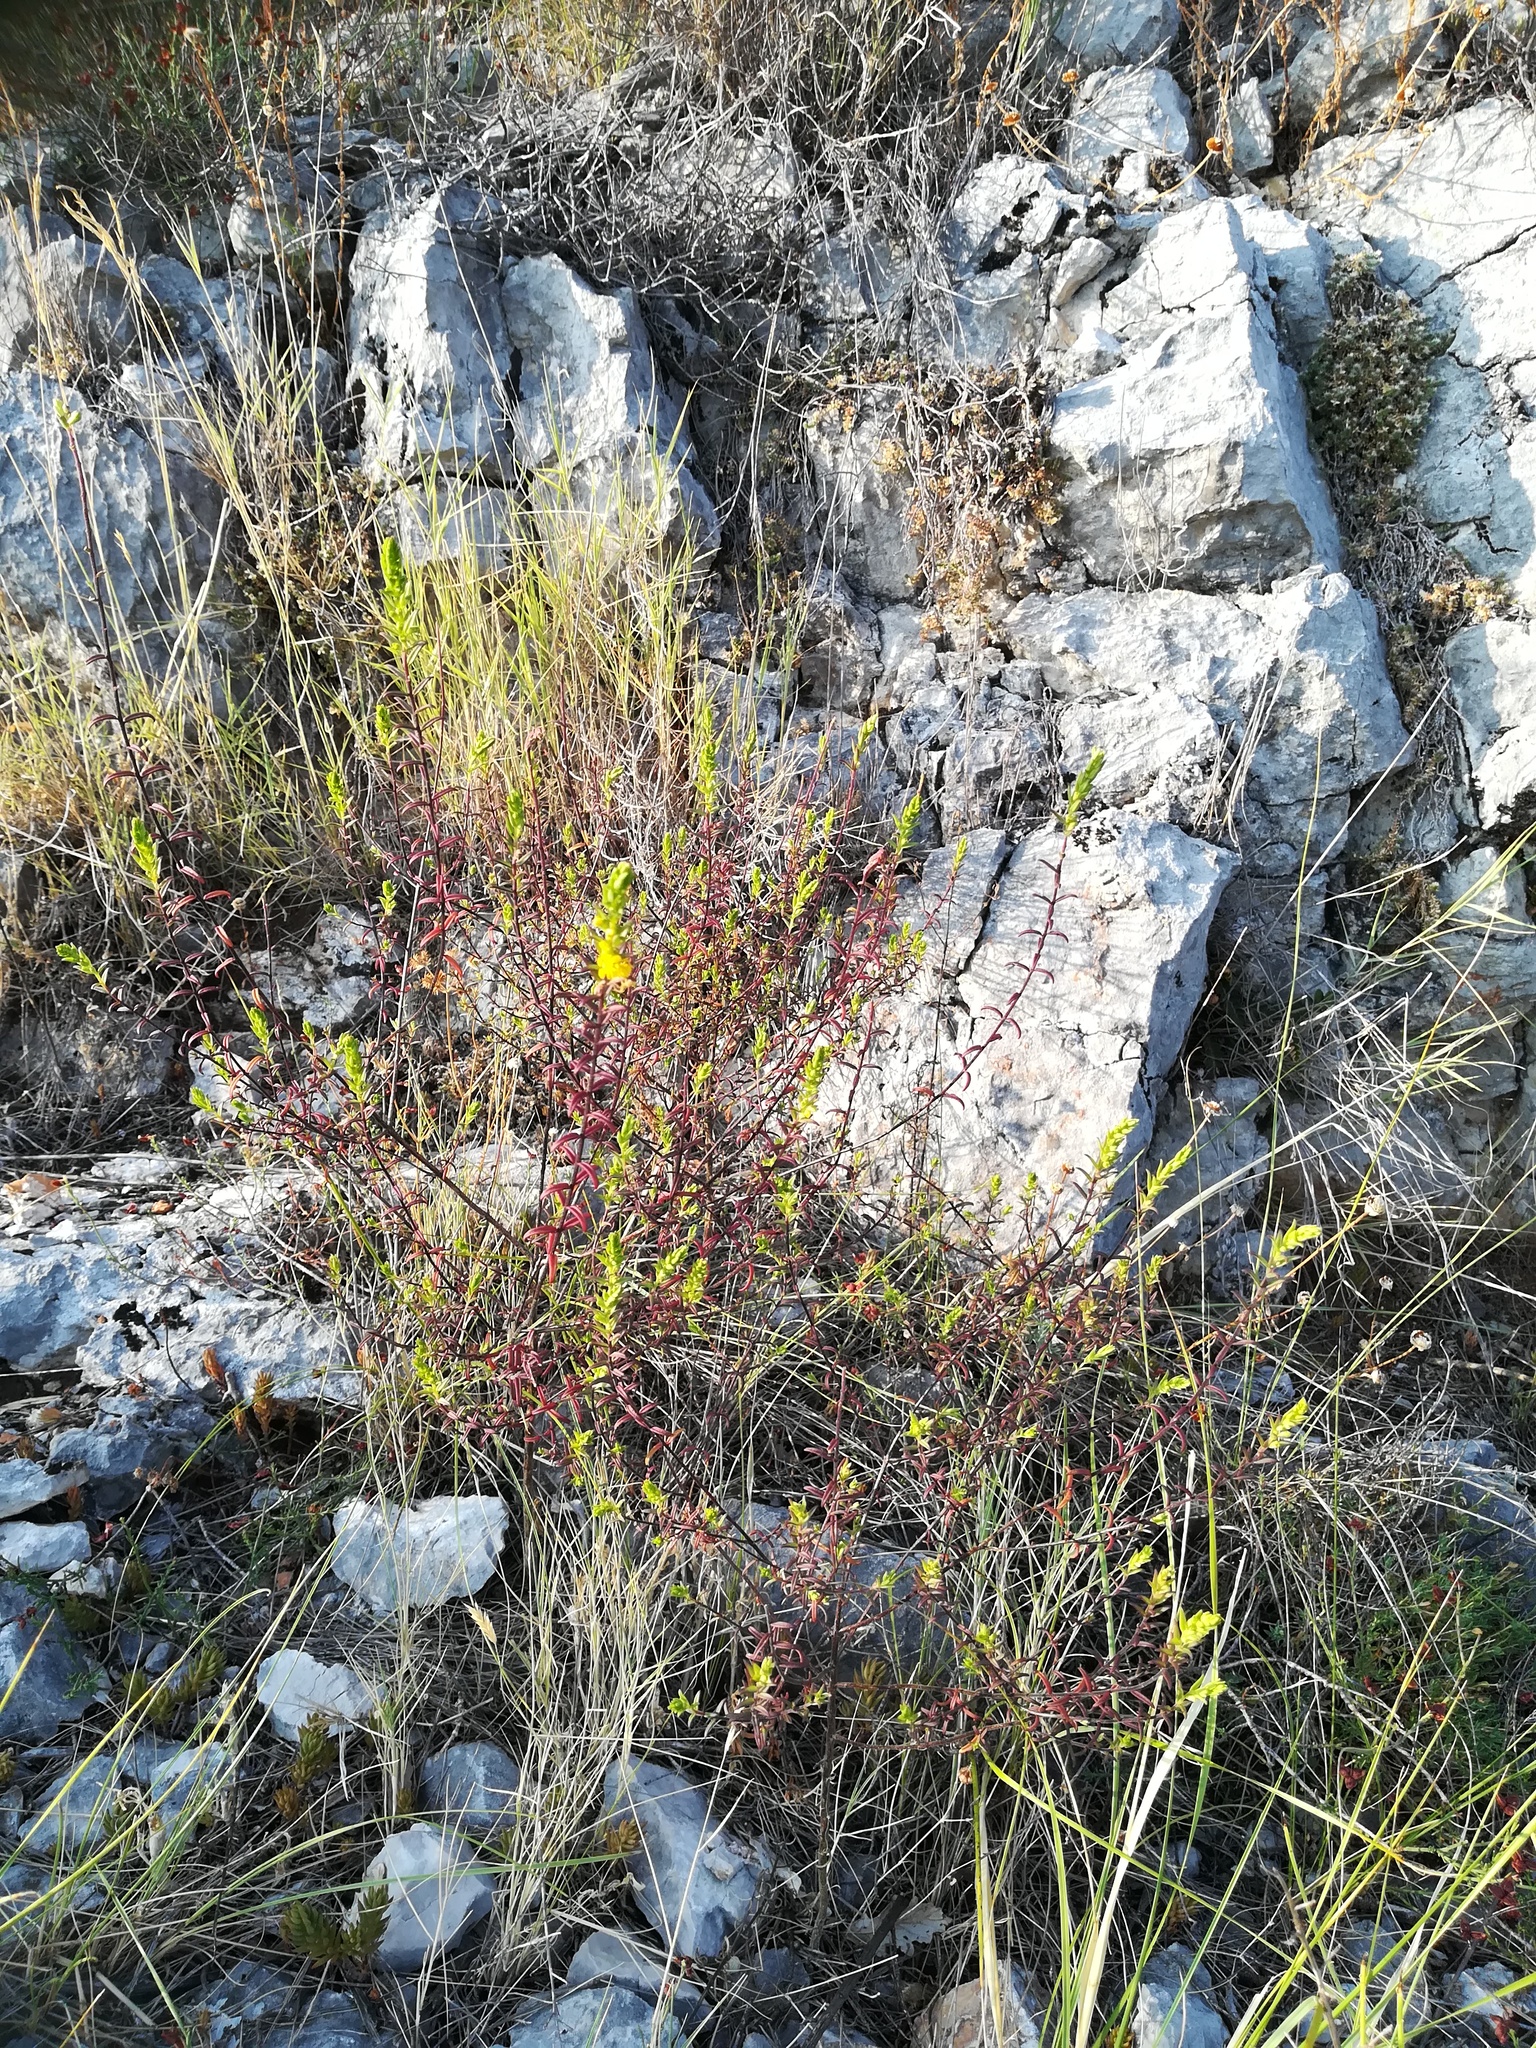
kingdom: Plantae
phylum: Tracheophyta
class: Magnoliopsida
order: Lamiales
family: Orobanchaceae
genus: Odontites
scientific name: Odontites luteus
